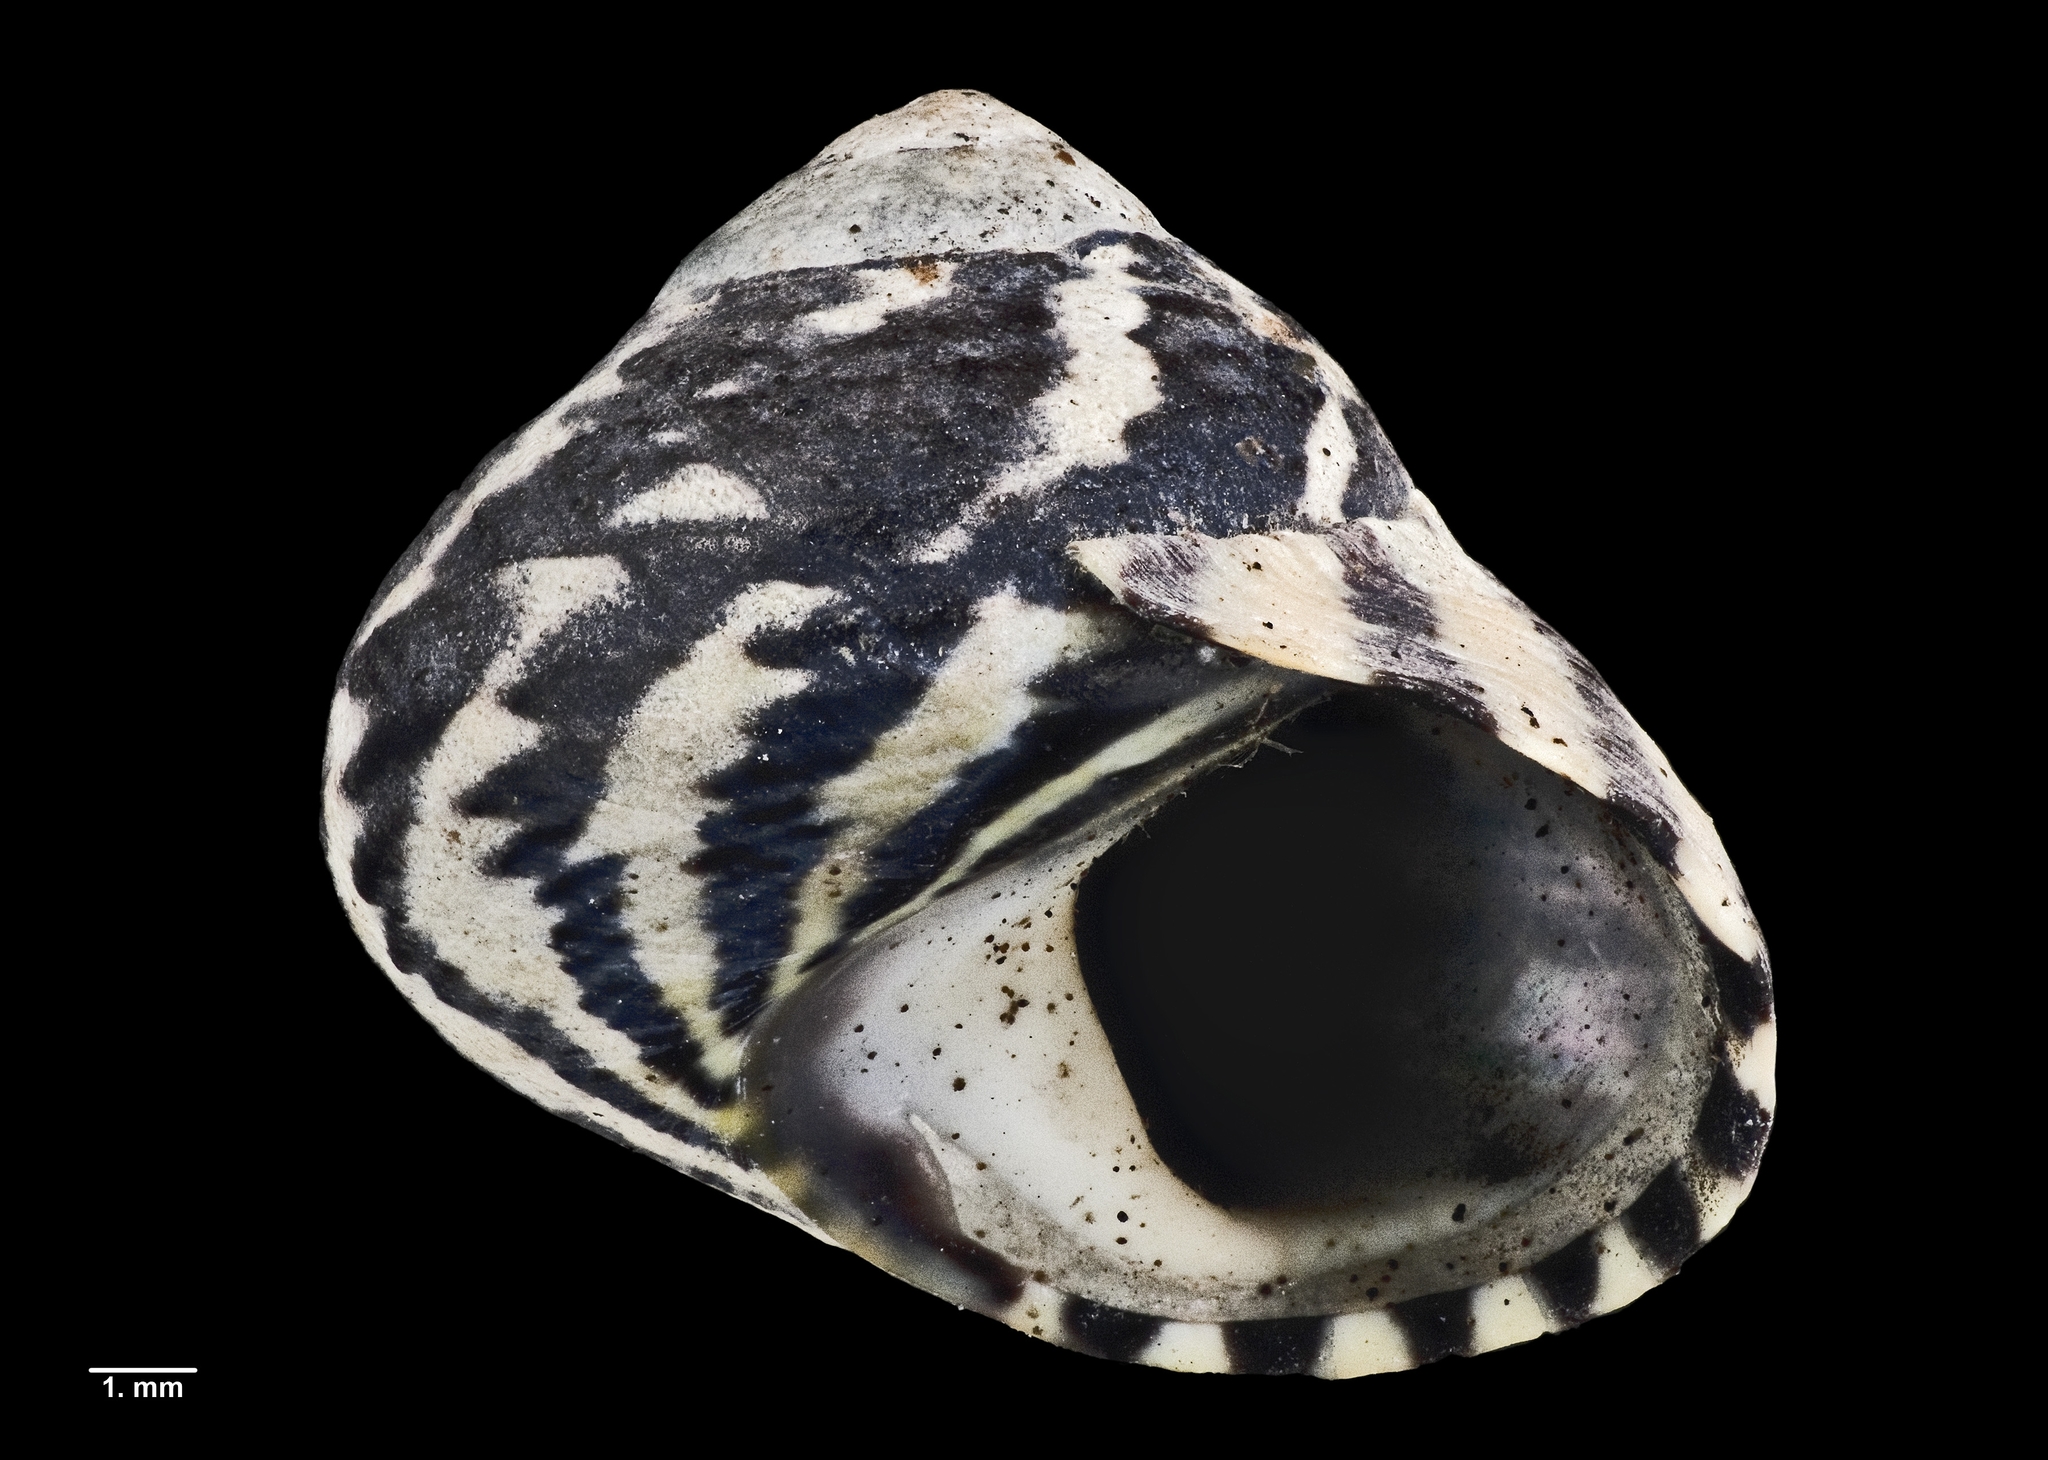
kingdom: Animalia
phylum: Mollusca
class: Gastropoda
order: Trochida
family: Trochidae
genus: Diloma
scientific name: Diloma subrostratum
